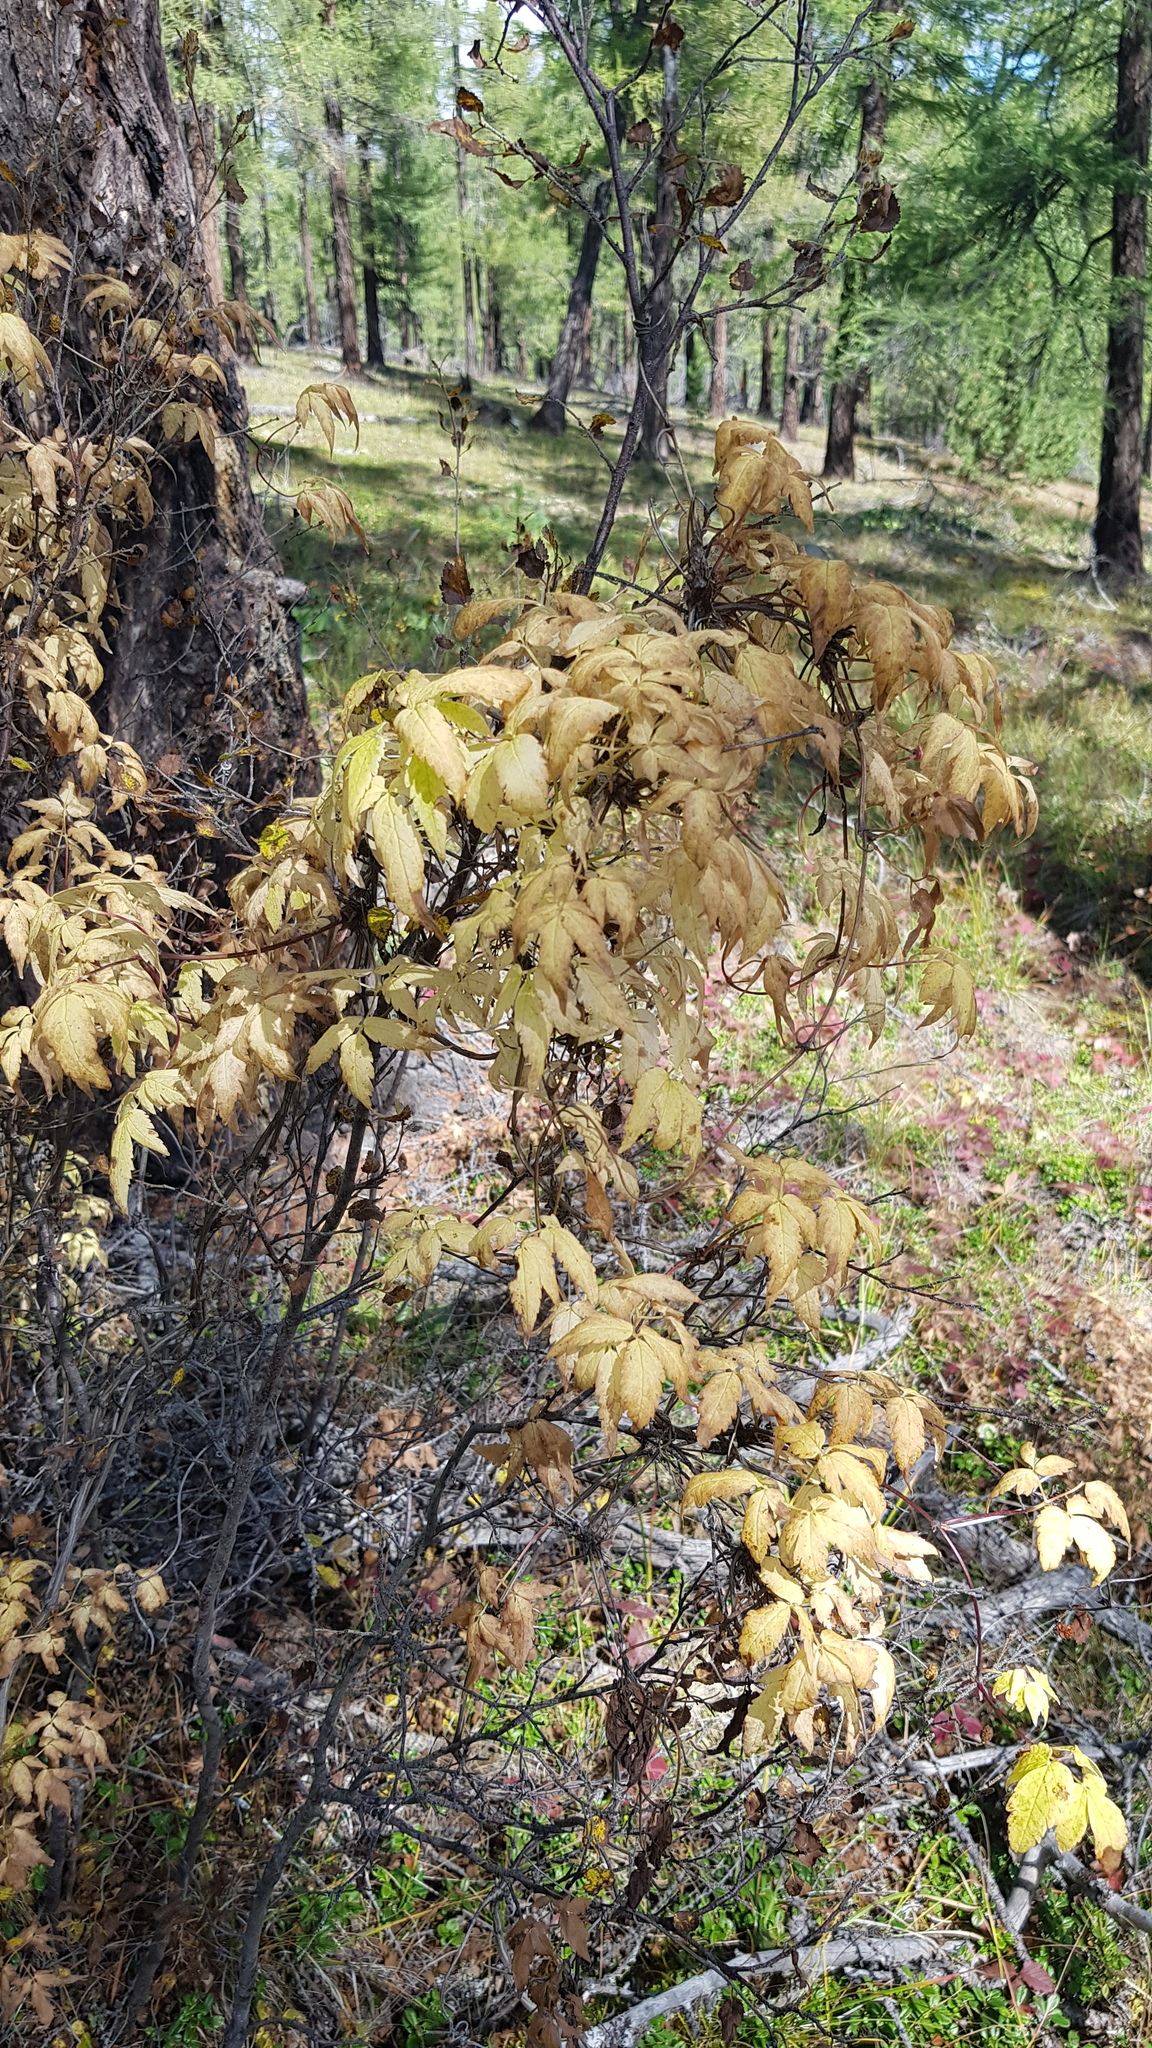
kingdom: Plantae
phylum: Tracheophyta
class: Magnoliopsida
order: Ranunculales
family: Ranunculaceae
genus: Clematis
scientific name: Clematis alpina
